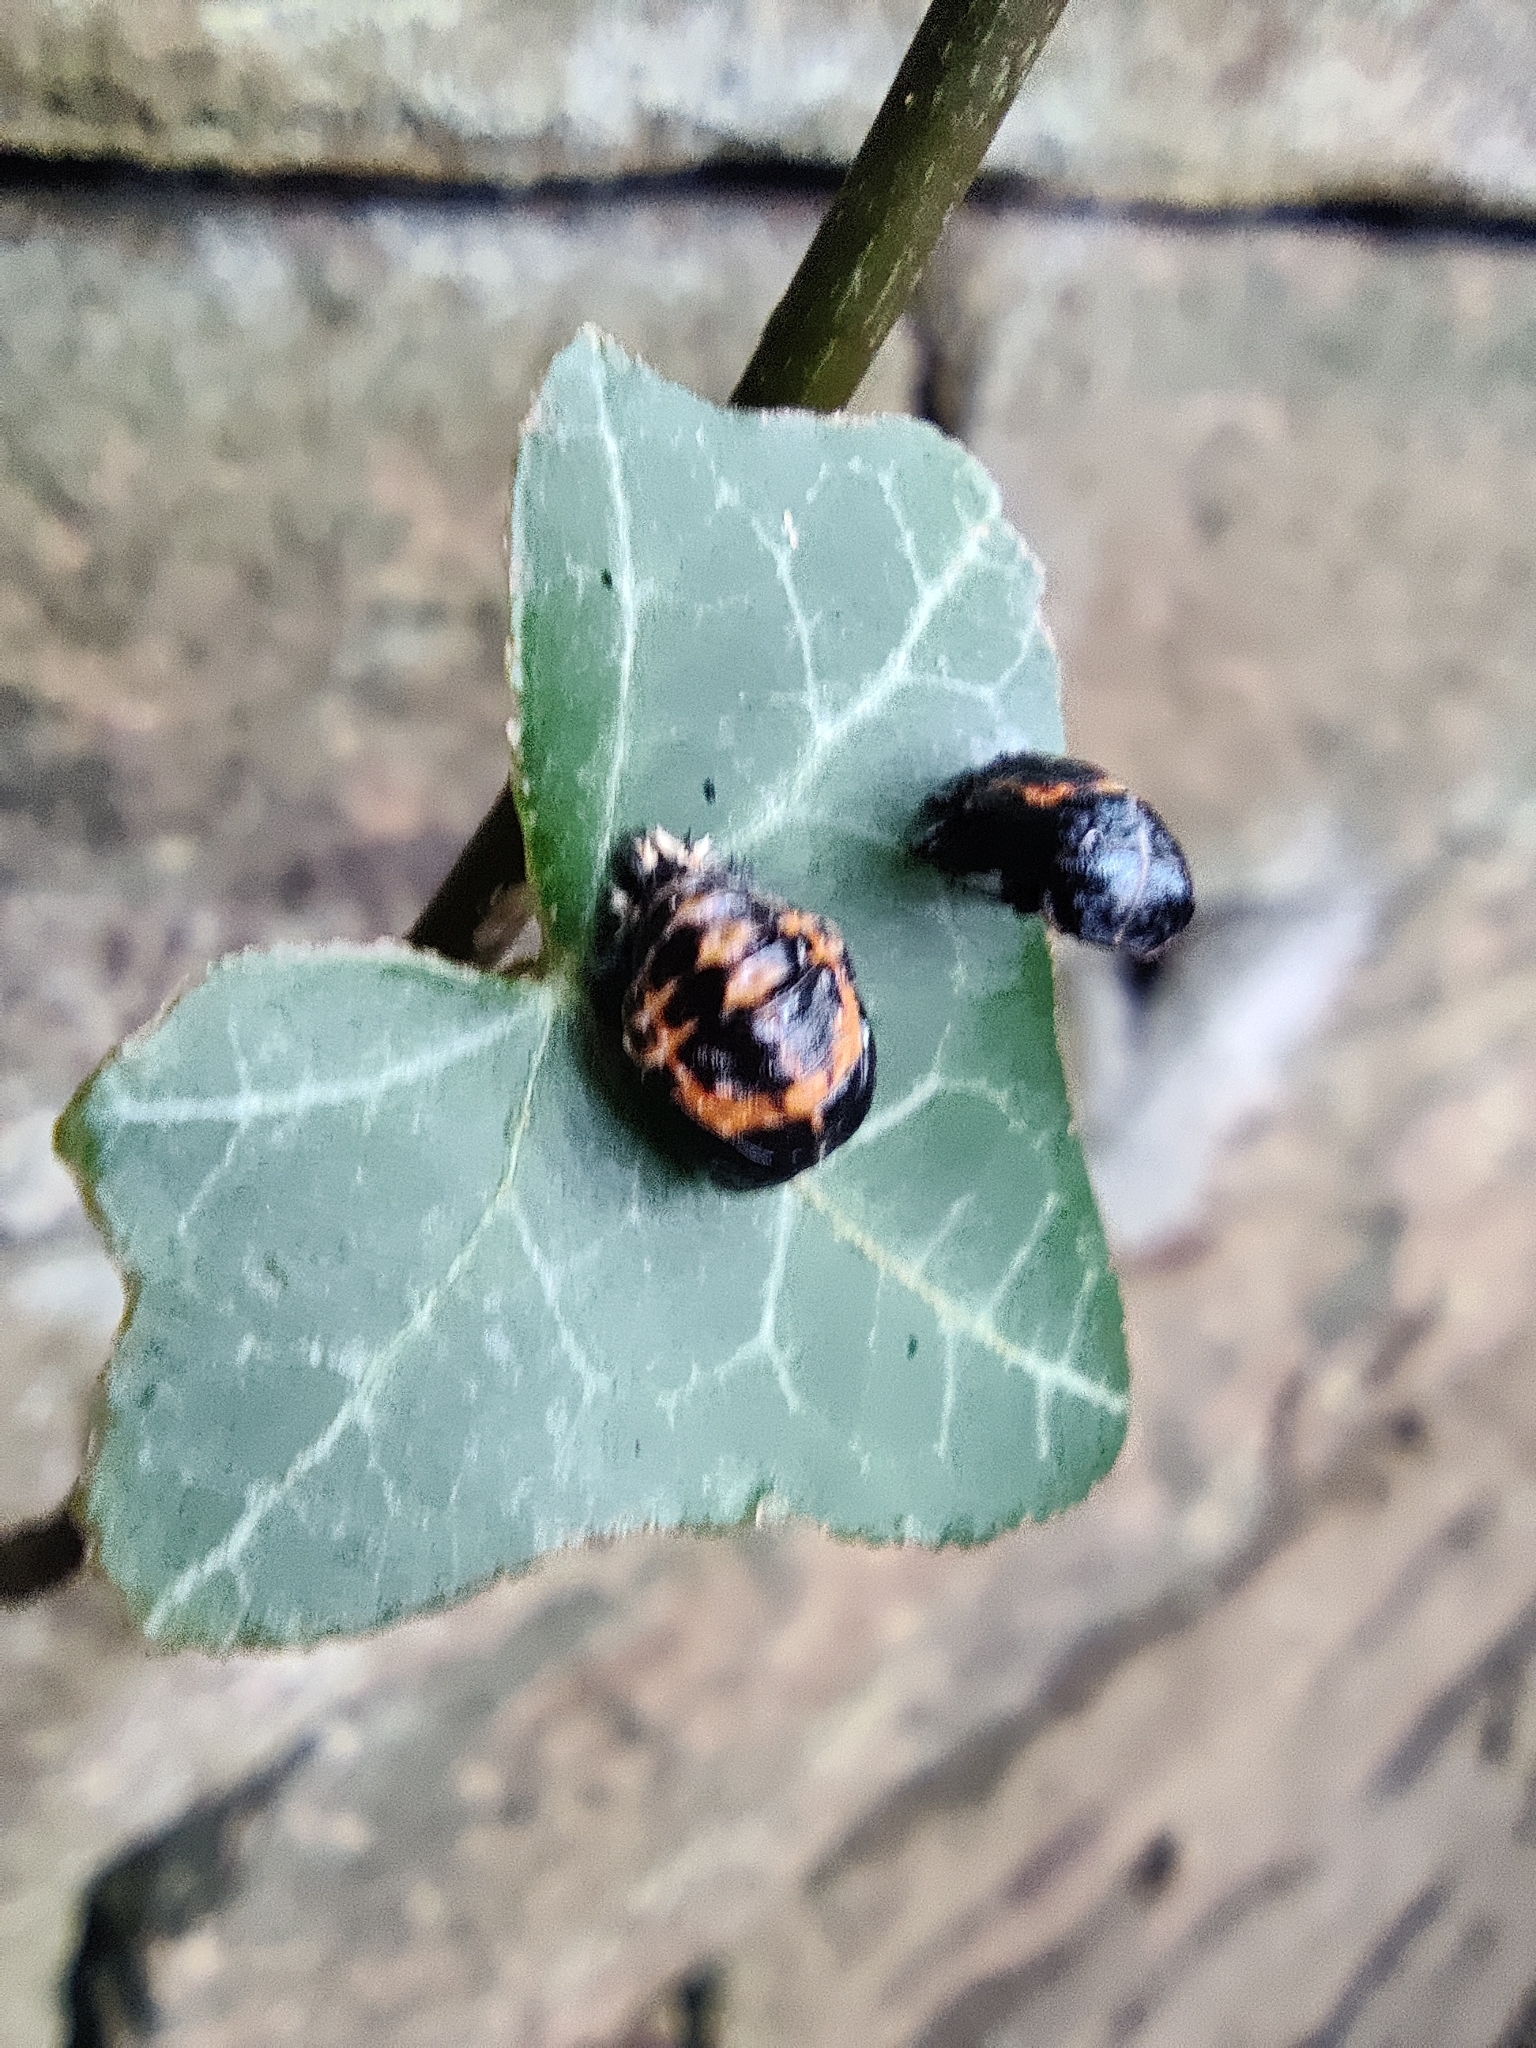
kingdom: Animalia
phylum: Arthropoda
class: Insecta
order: Coleoptera
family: Coccinellidae
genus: Harmonia
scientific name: Harmonia axyridis
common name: Harlequin ladybird
